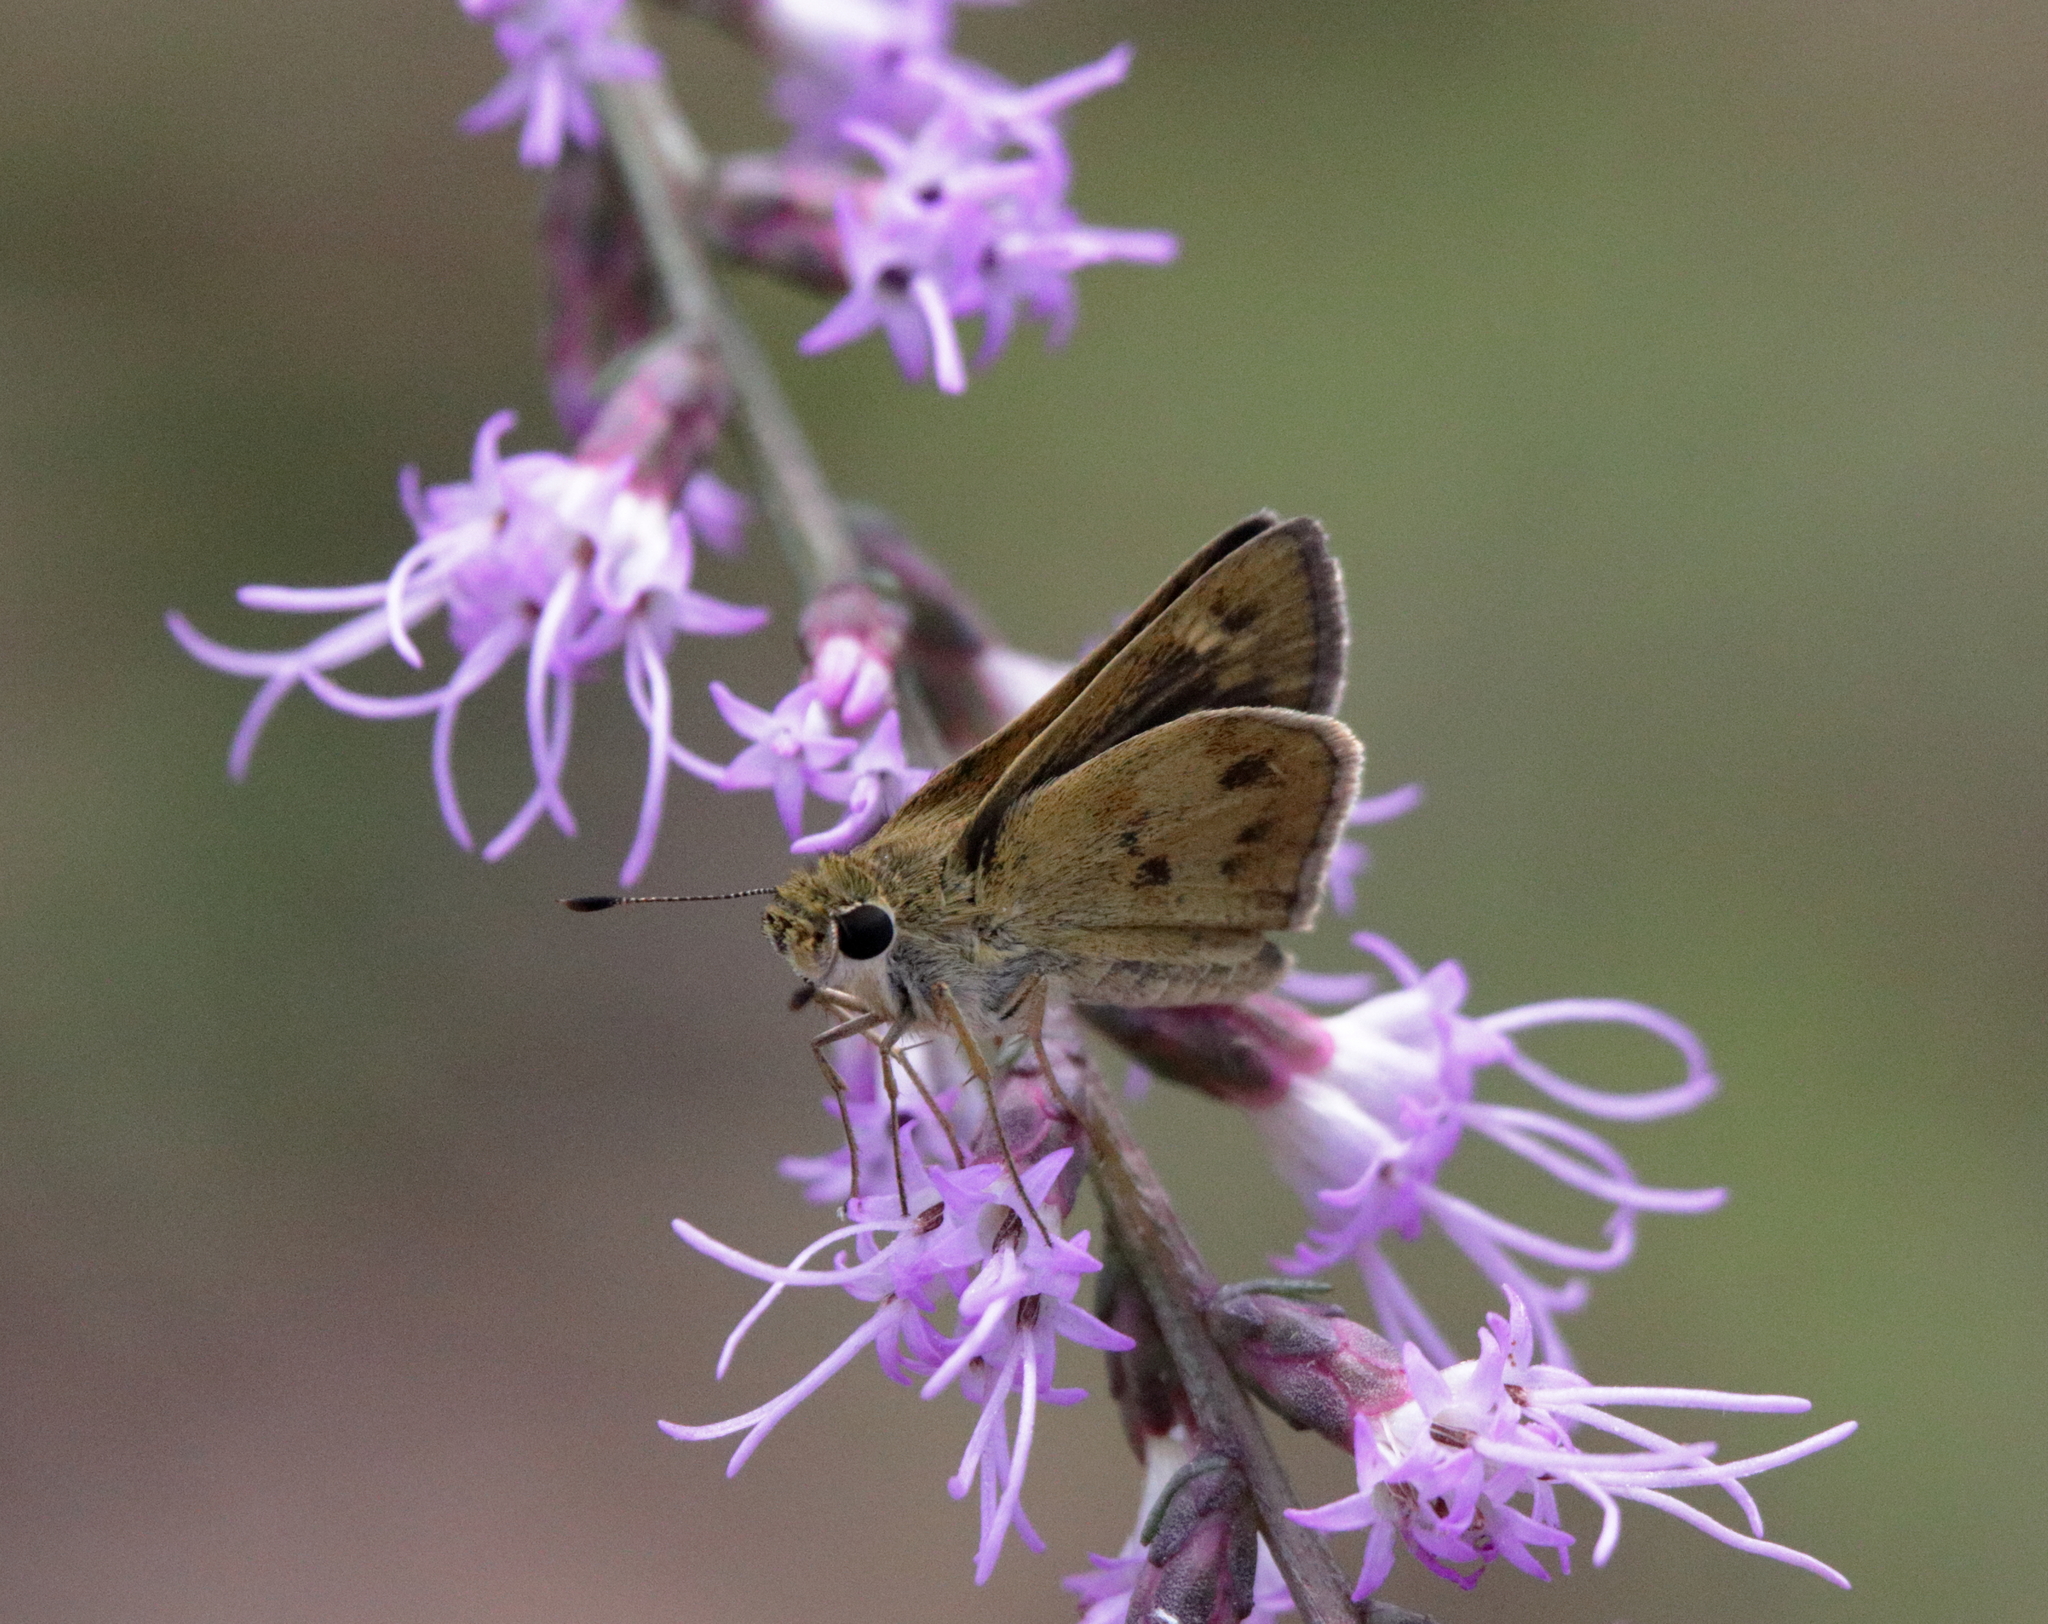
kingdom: Animalia
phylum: Arthropoda
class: Insecta
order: Lepidoptera
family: Hesperiidae
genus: Polites
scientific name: Polites vibex
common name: Whirlabout
